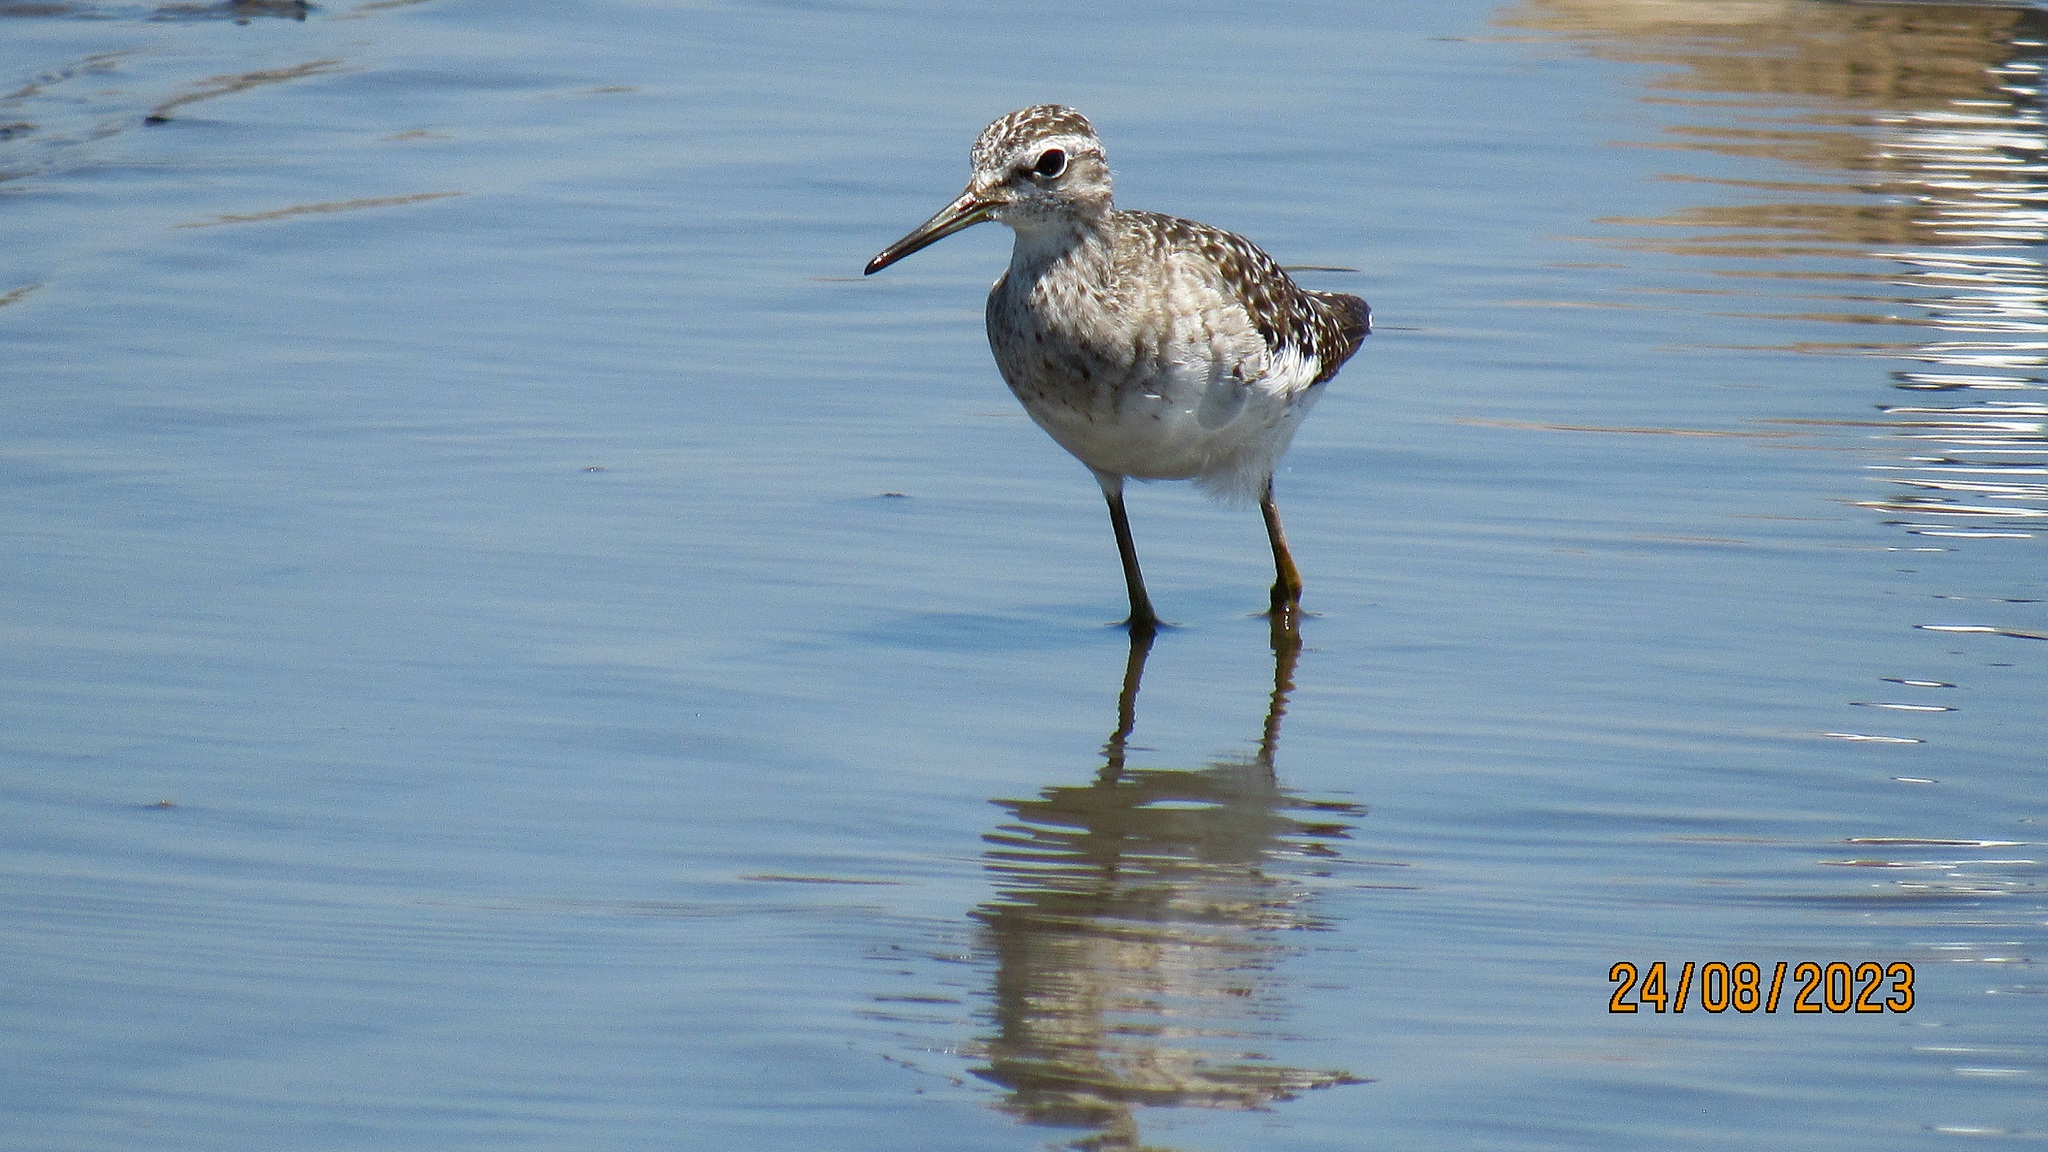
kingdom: Animalia
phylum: Chordata
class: Aves
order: Charadriiformes
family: Scolopacidae
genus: Tringa
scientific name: Tringa glareola
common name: Wood sandpiper
